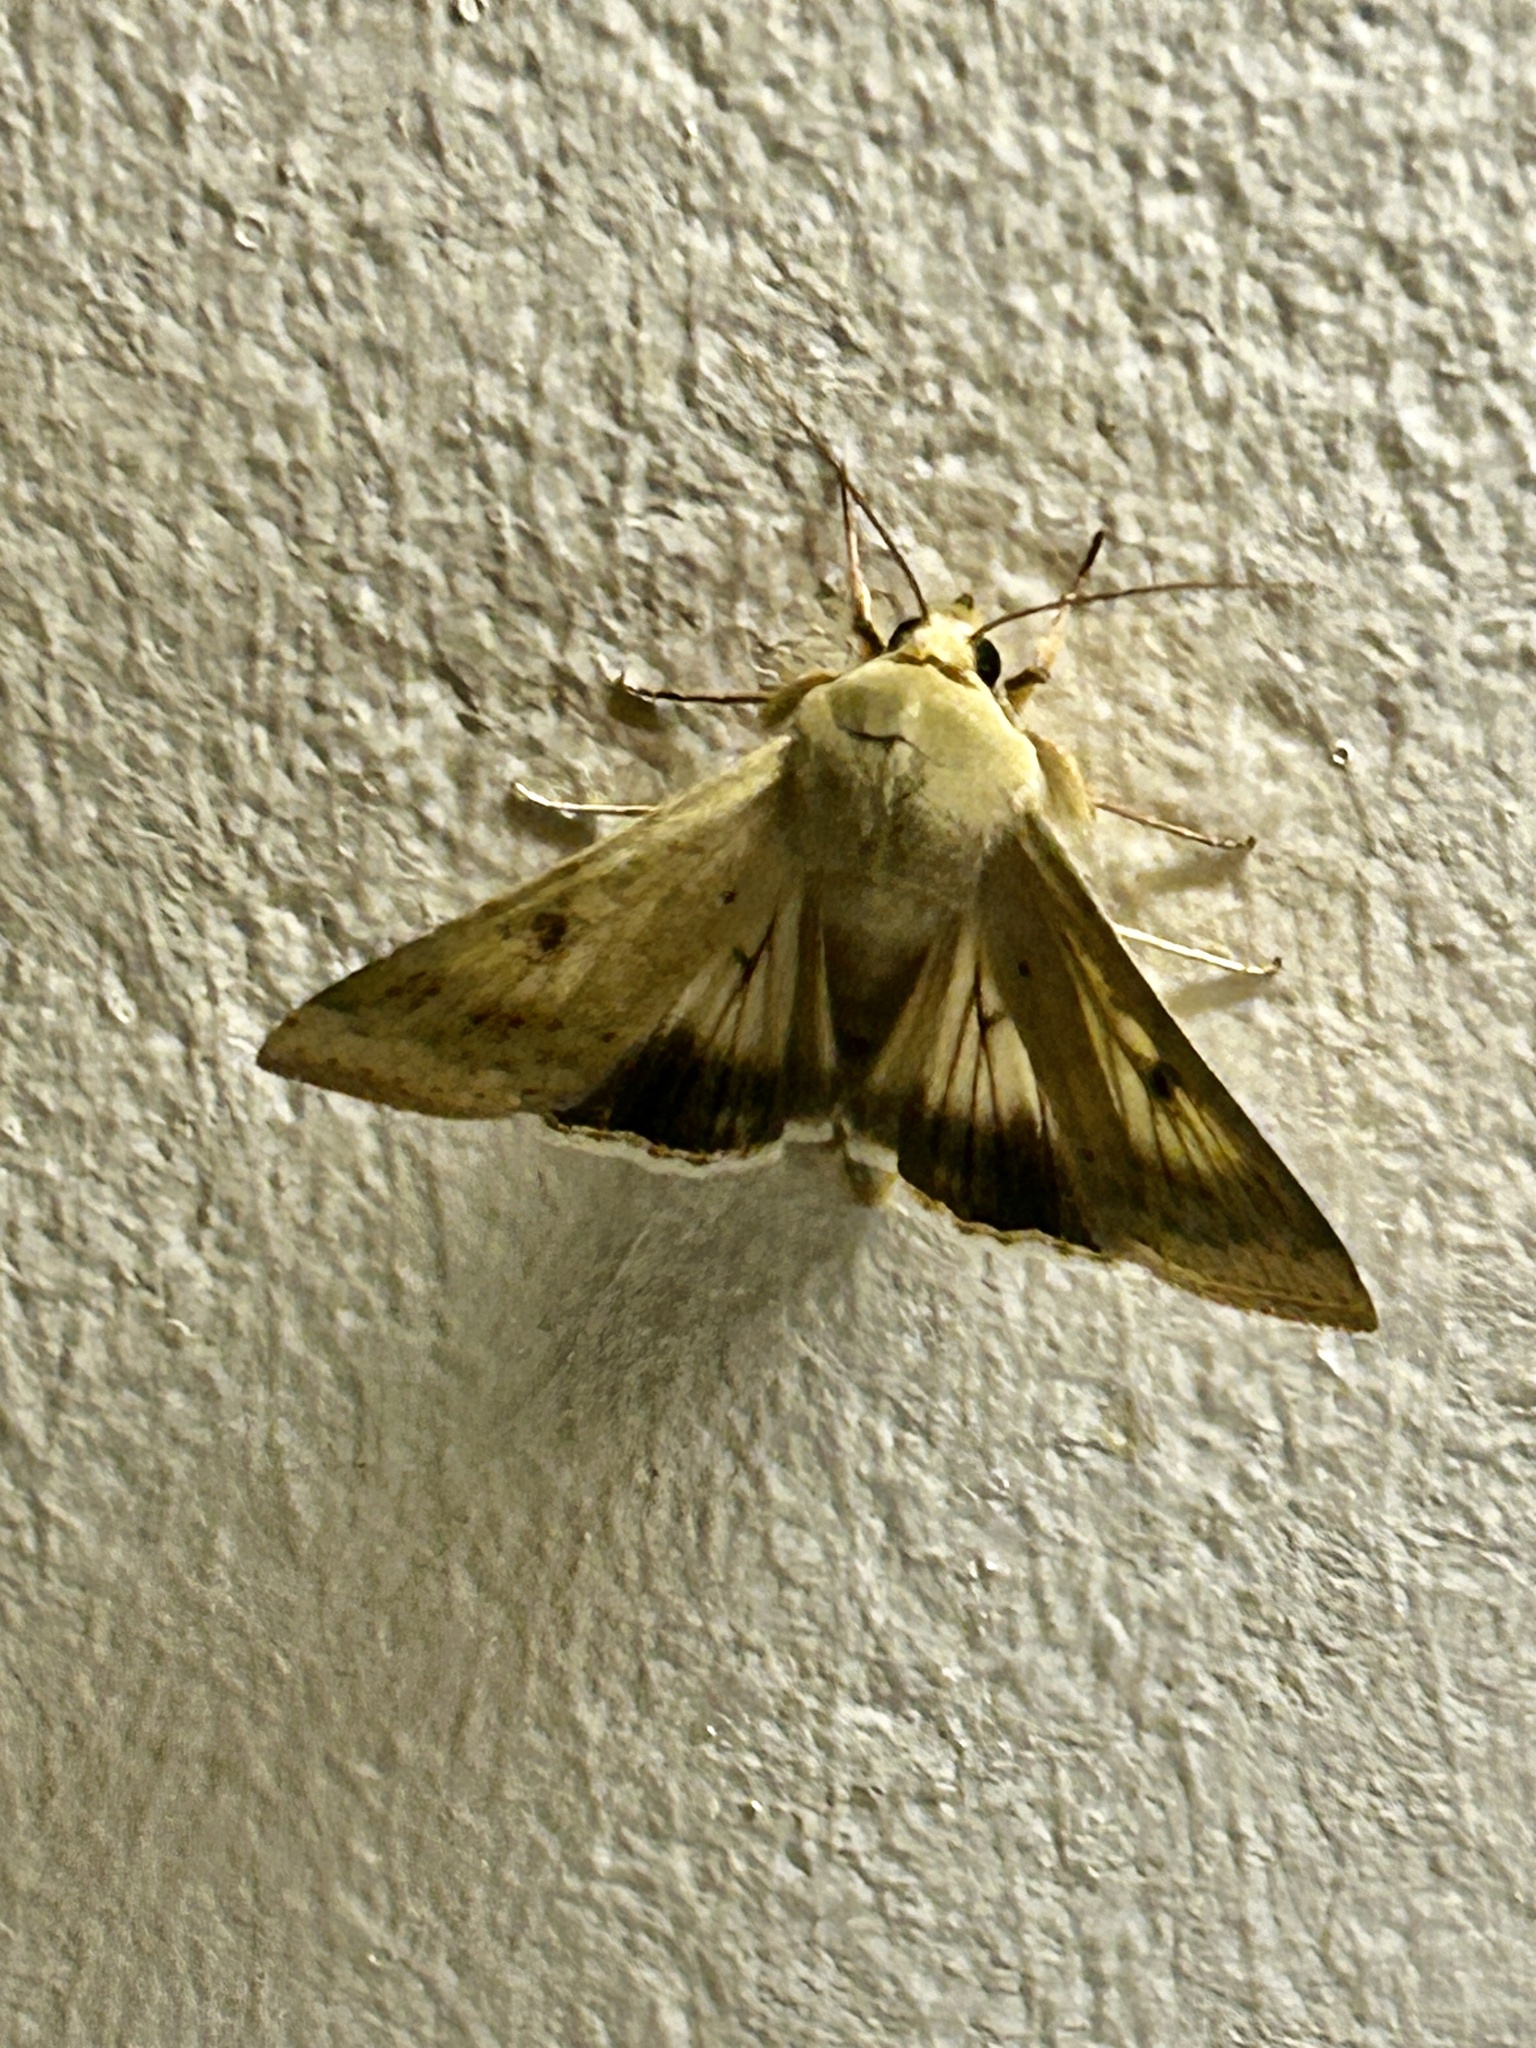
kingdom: Animalia
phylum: Arthropoda
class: Insecta
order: Lepidoptera
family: Noctuidae
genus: Helicoverpa
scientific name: Helicoverpa armigera
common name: Cotton bollworm
